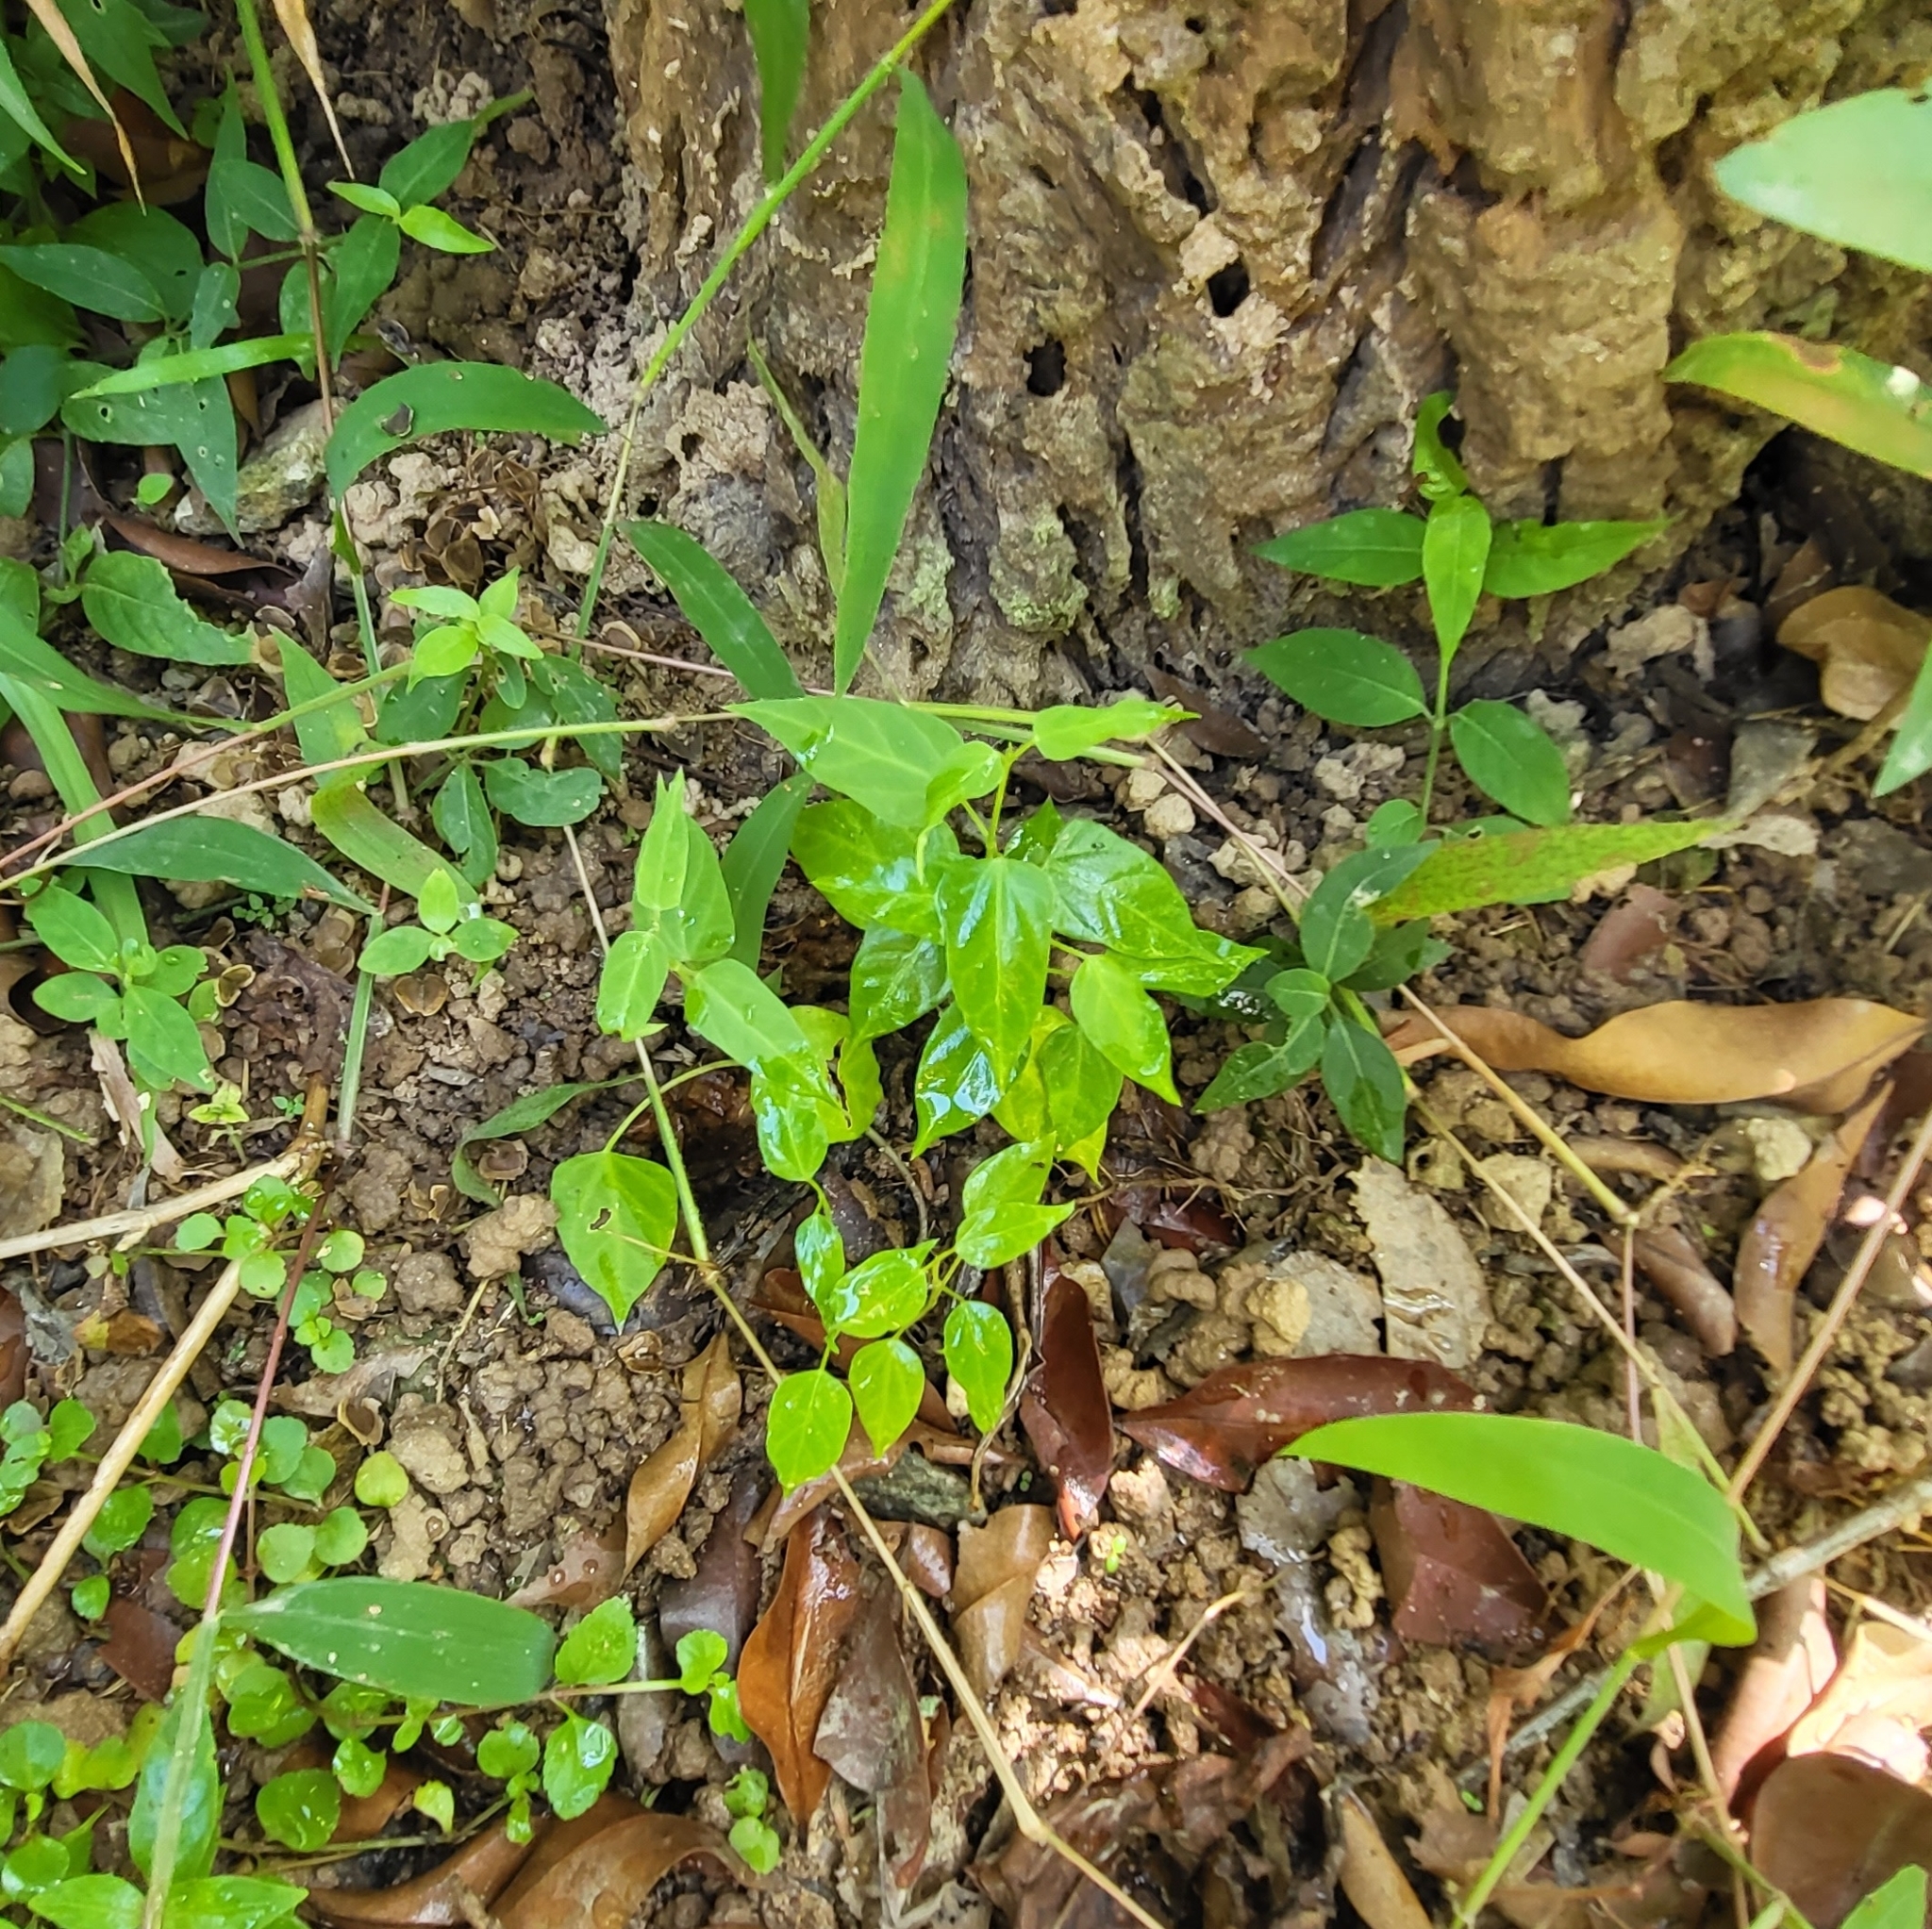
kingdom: Plantae
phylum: Tracheophyta
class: Magnoliopsida
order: Gentianales
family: Apocynaceae
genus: Cynanchum
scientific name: Cynanchum tunicatum
